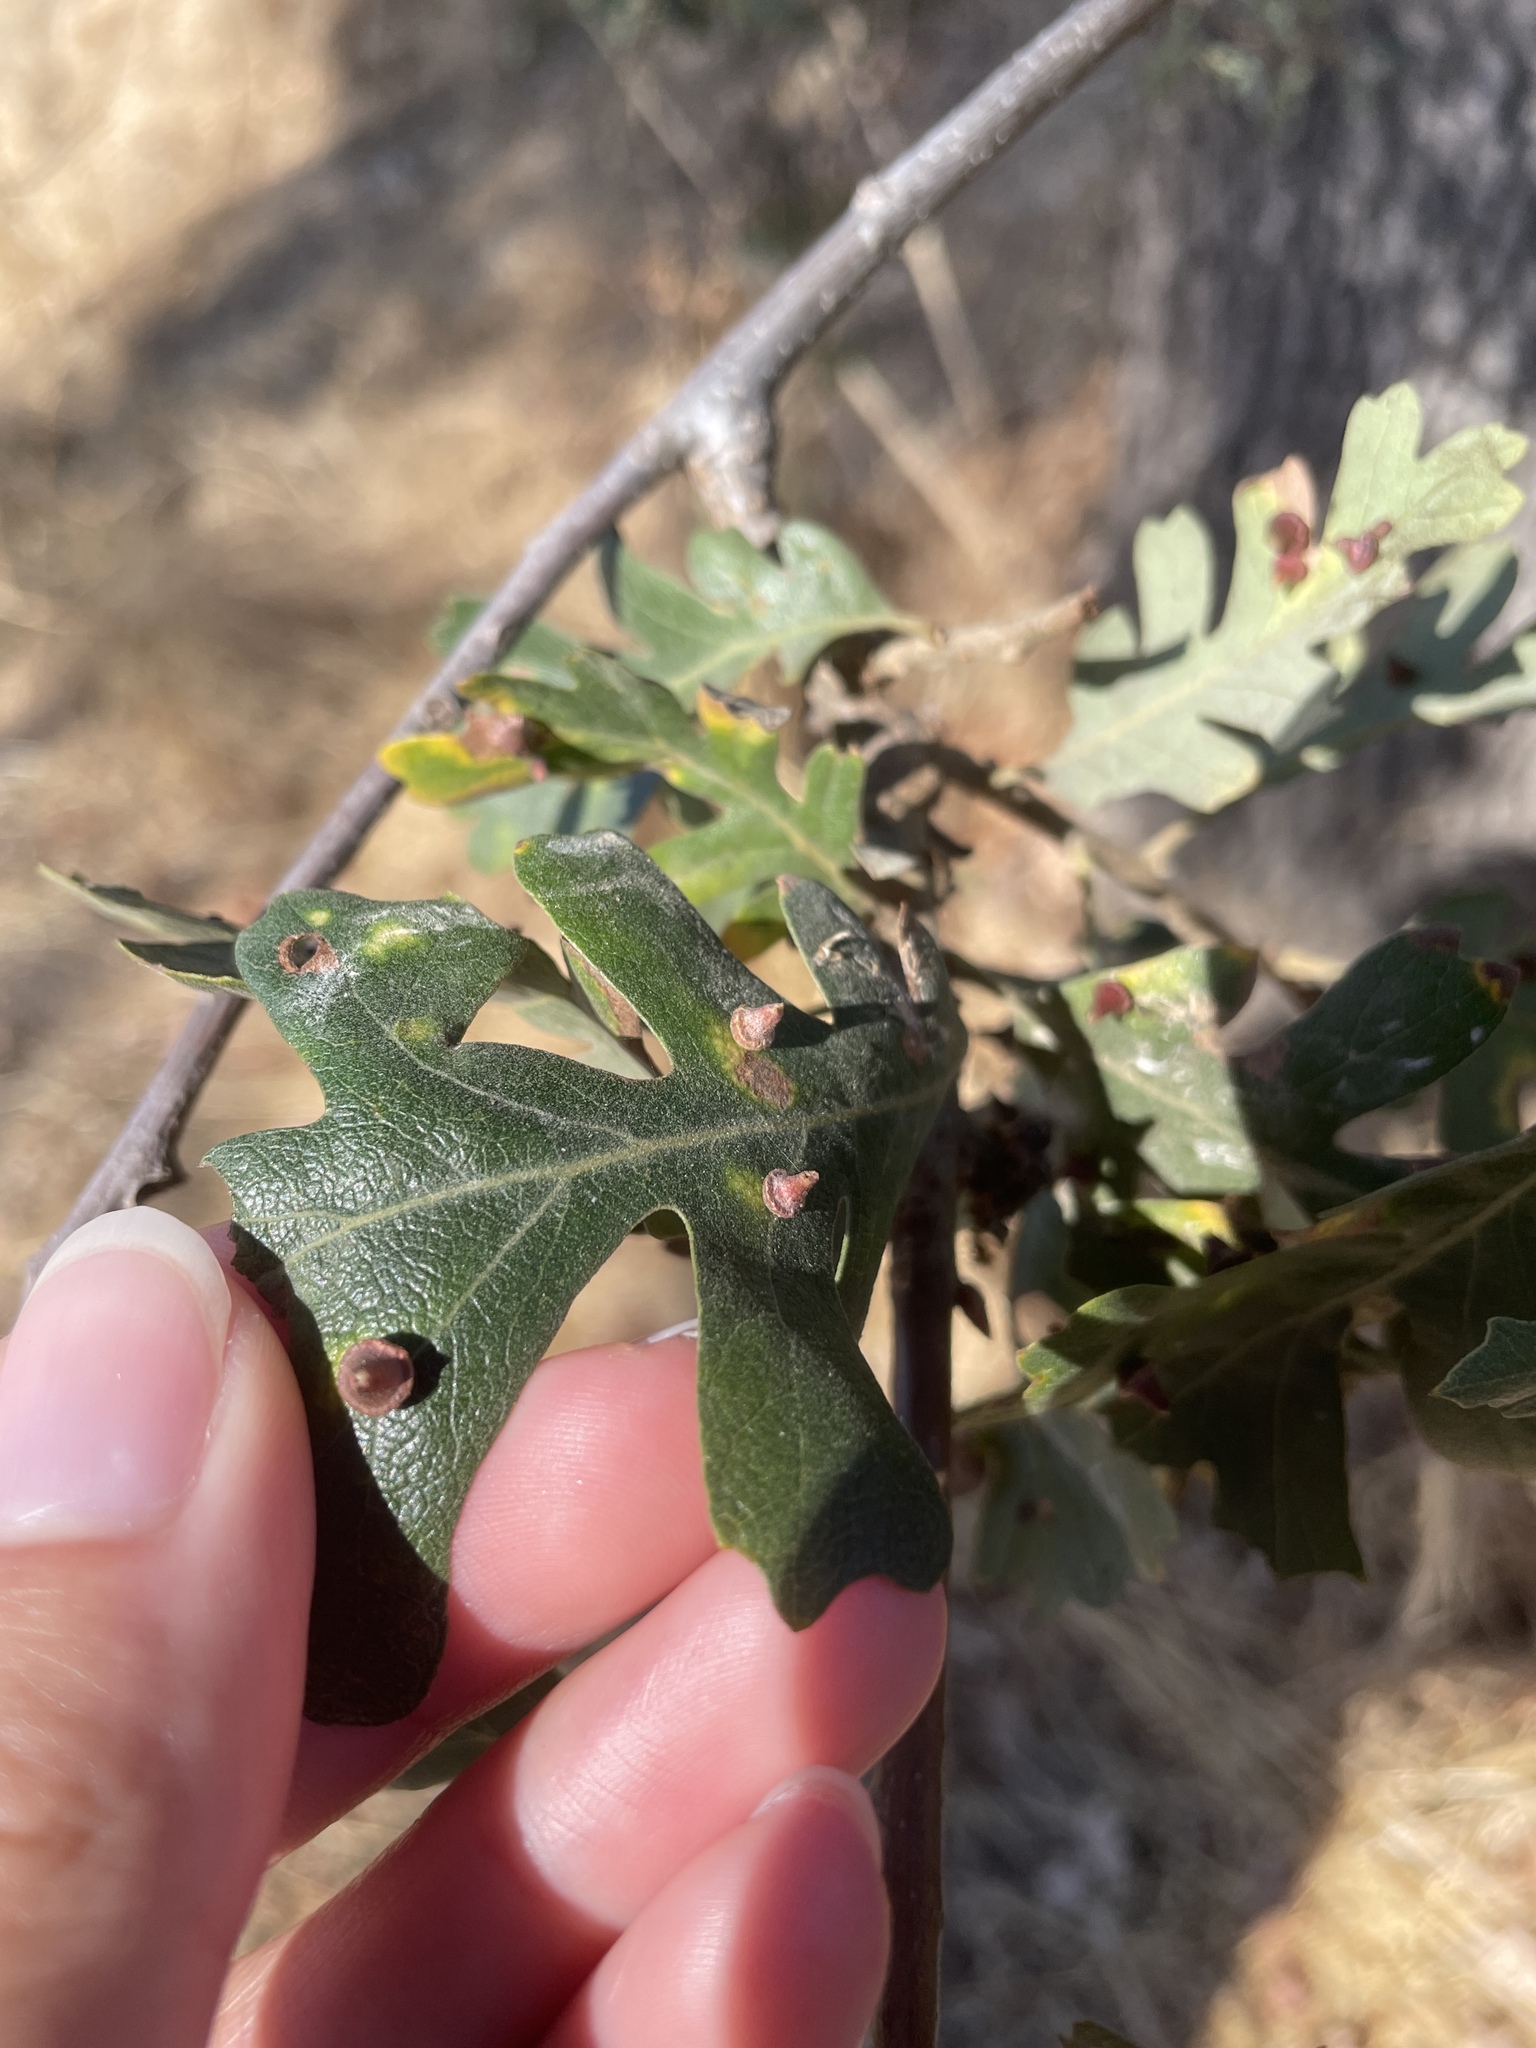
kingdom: Animalia
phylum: Arthropoda
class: Insecta
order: Hymenoptera
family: Cynipidae
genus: Andricus
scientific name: Andricus
